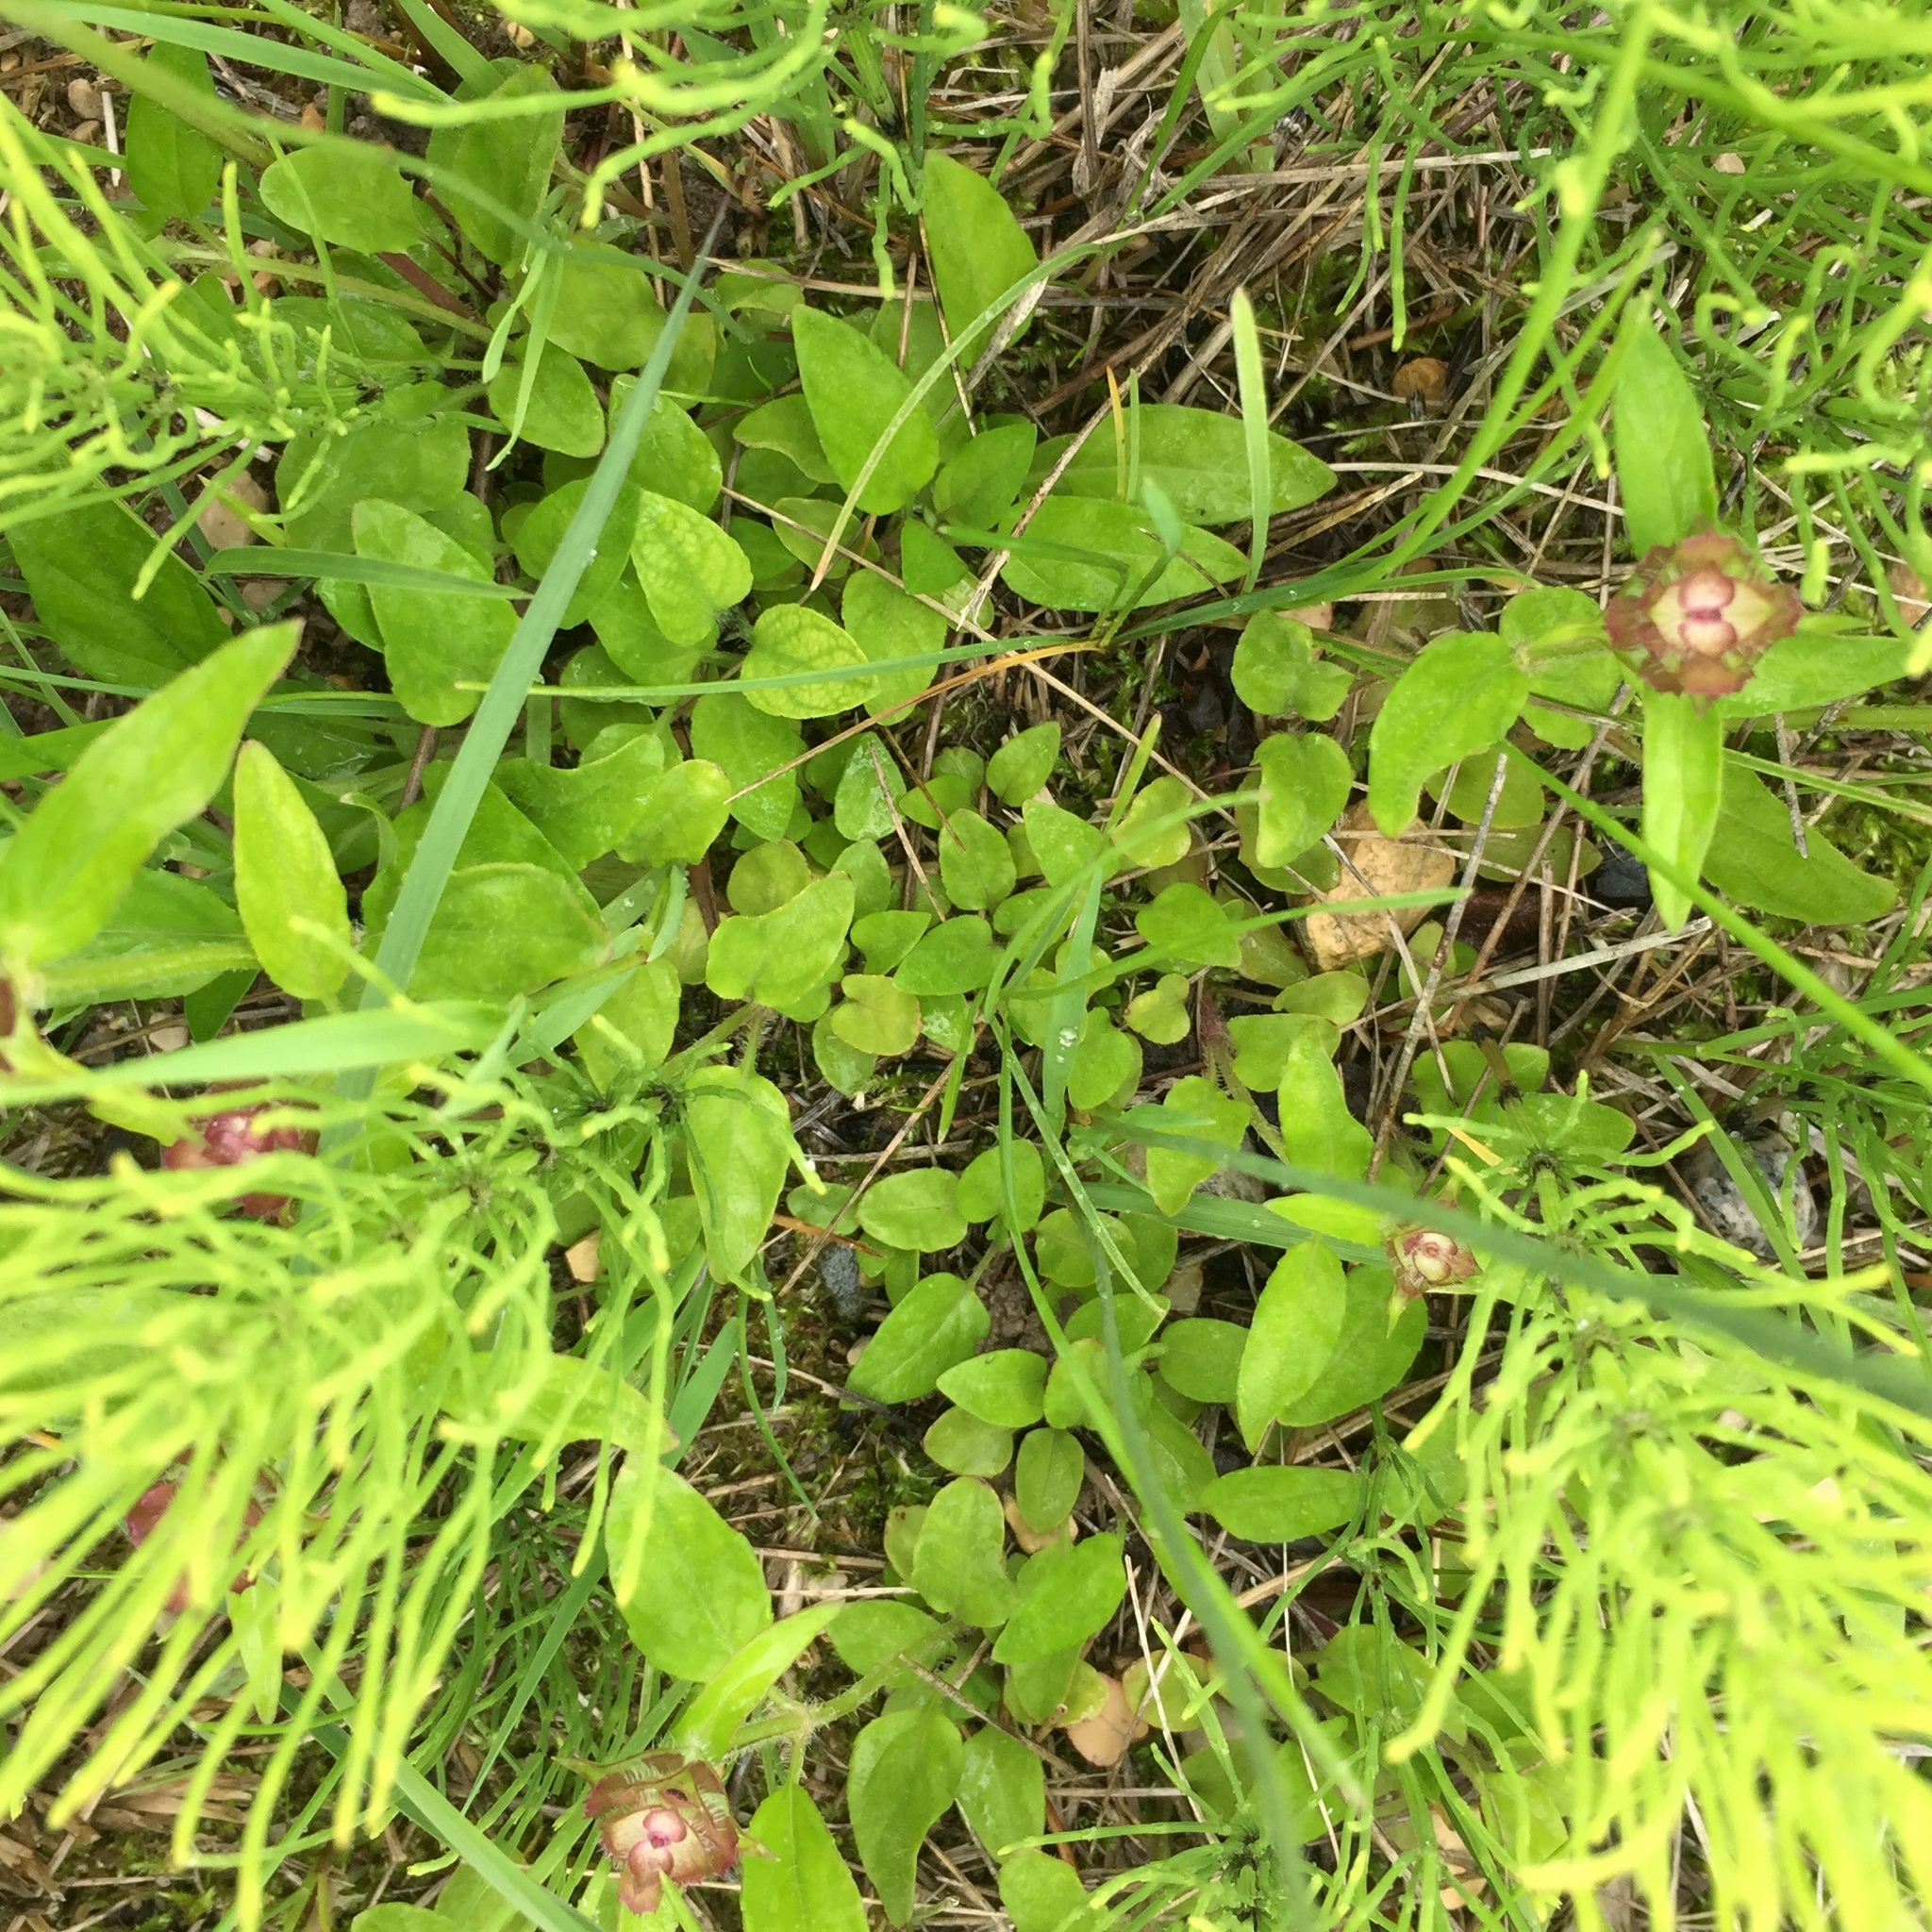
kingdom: Plantae
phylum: Tracheophyta
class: Magnoliopsida
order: Lamiales
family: Lamiaceae
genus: Prunella
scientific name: Prunella vulgaris
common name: Heal-all
